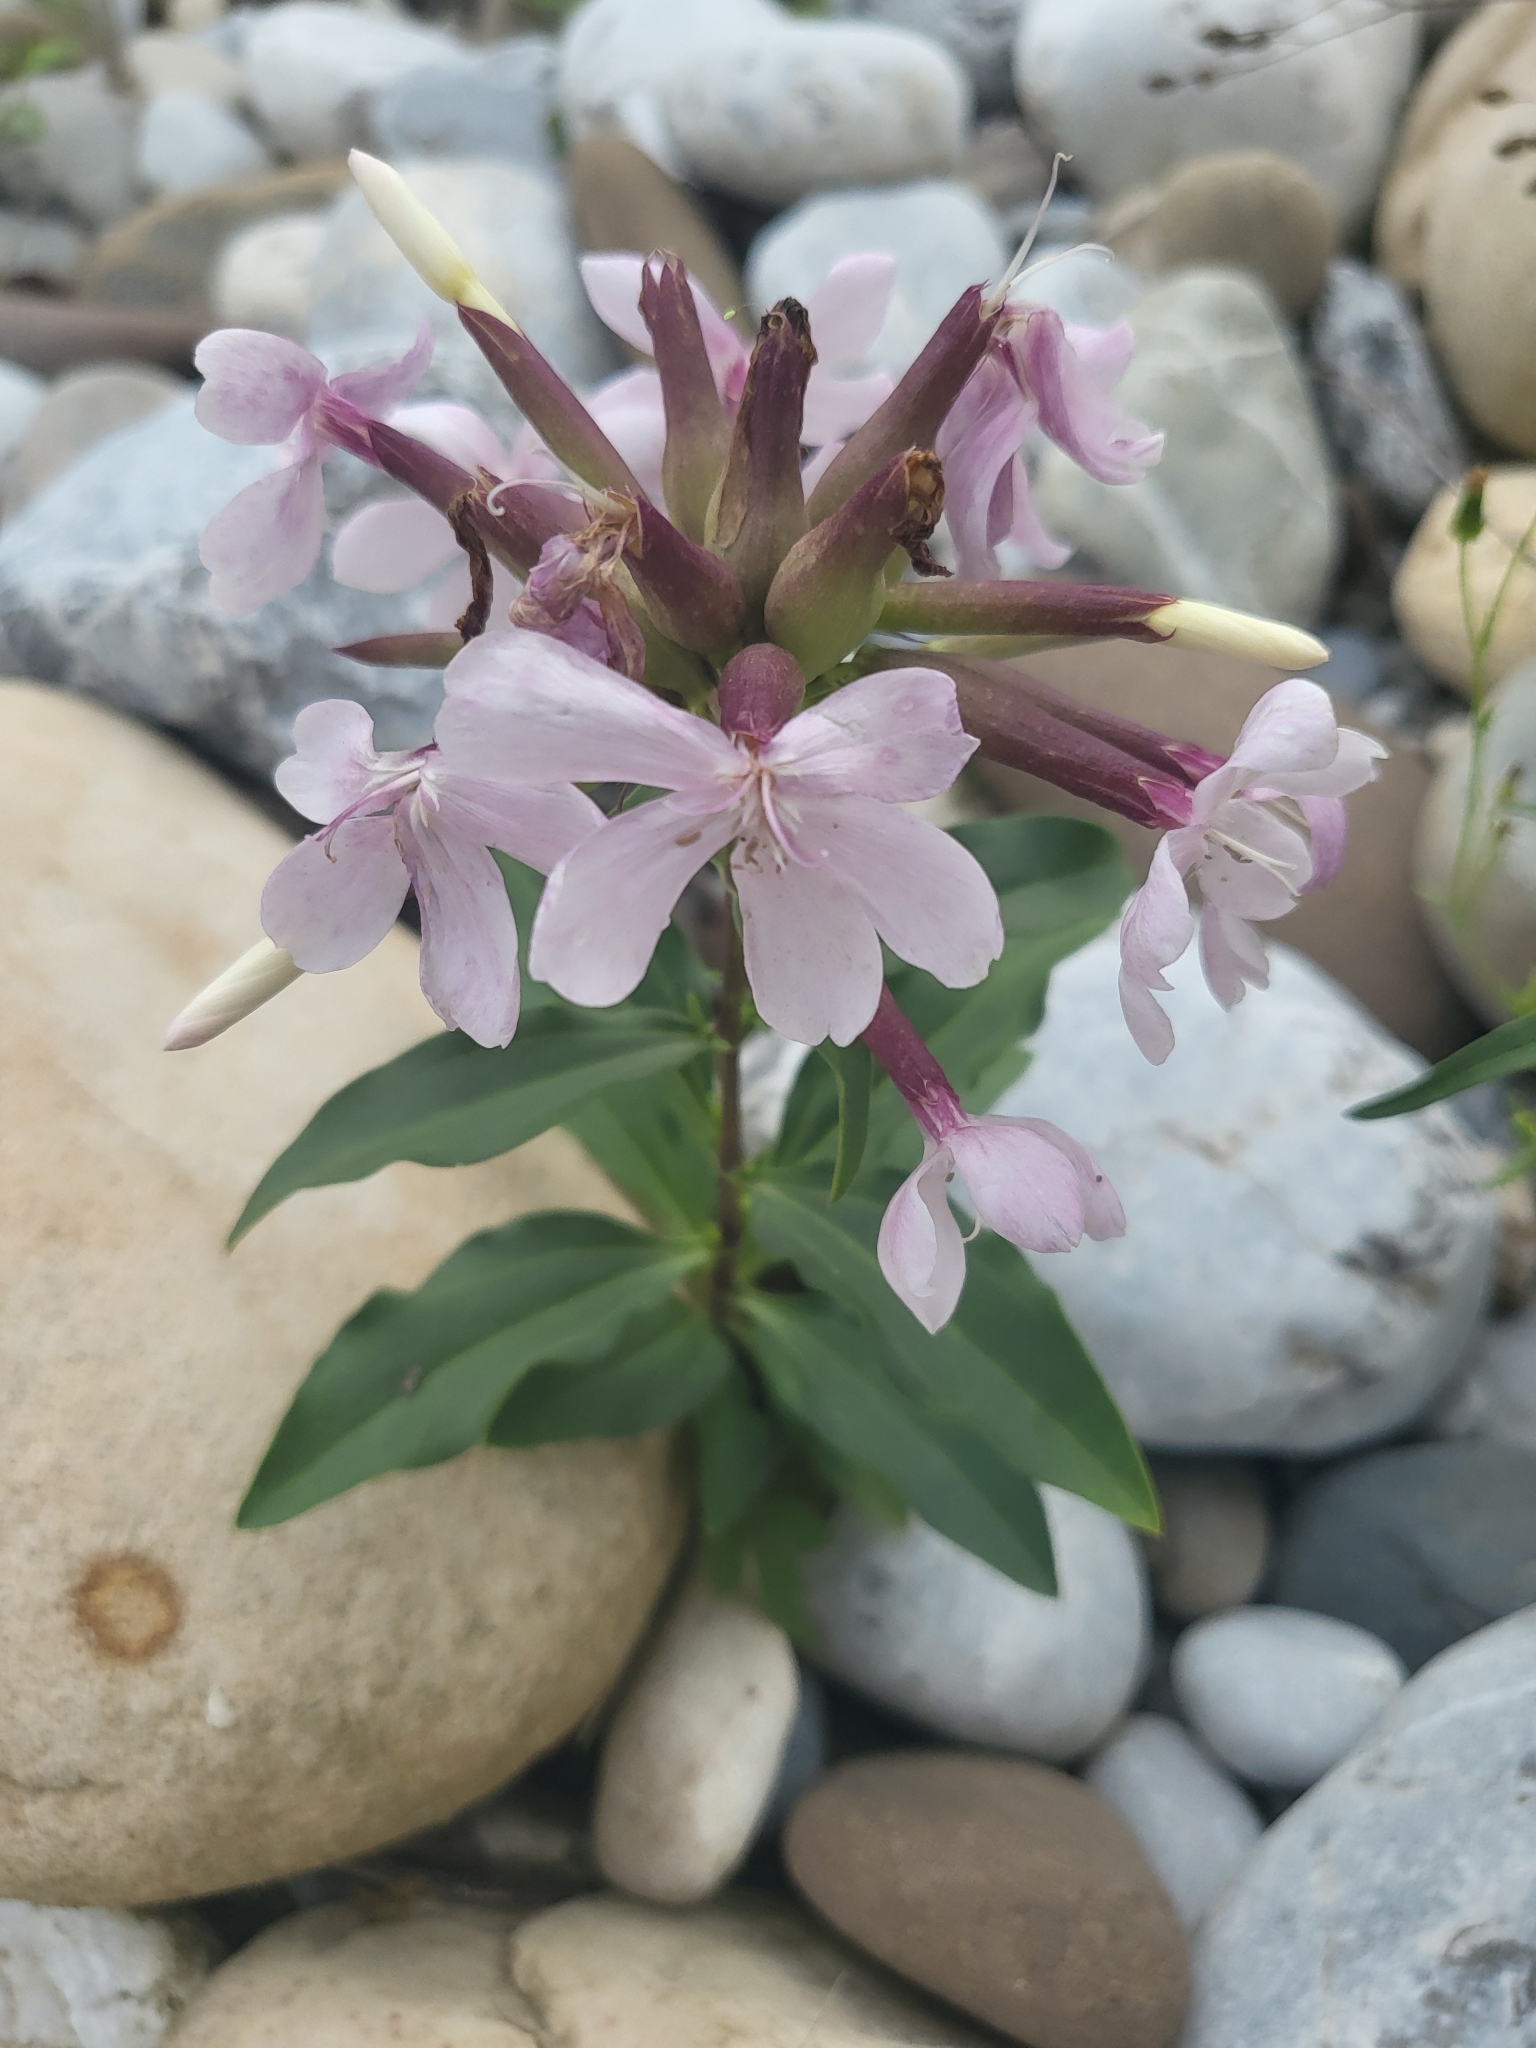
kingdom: Plantae
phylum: Tracheophyta
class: Magnoliopsida
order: Caryophyllales
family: Caryophyllaceae
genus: Saponaria
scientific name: Saponaria officinalis
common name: Soapwort
